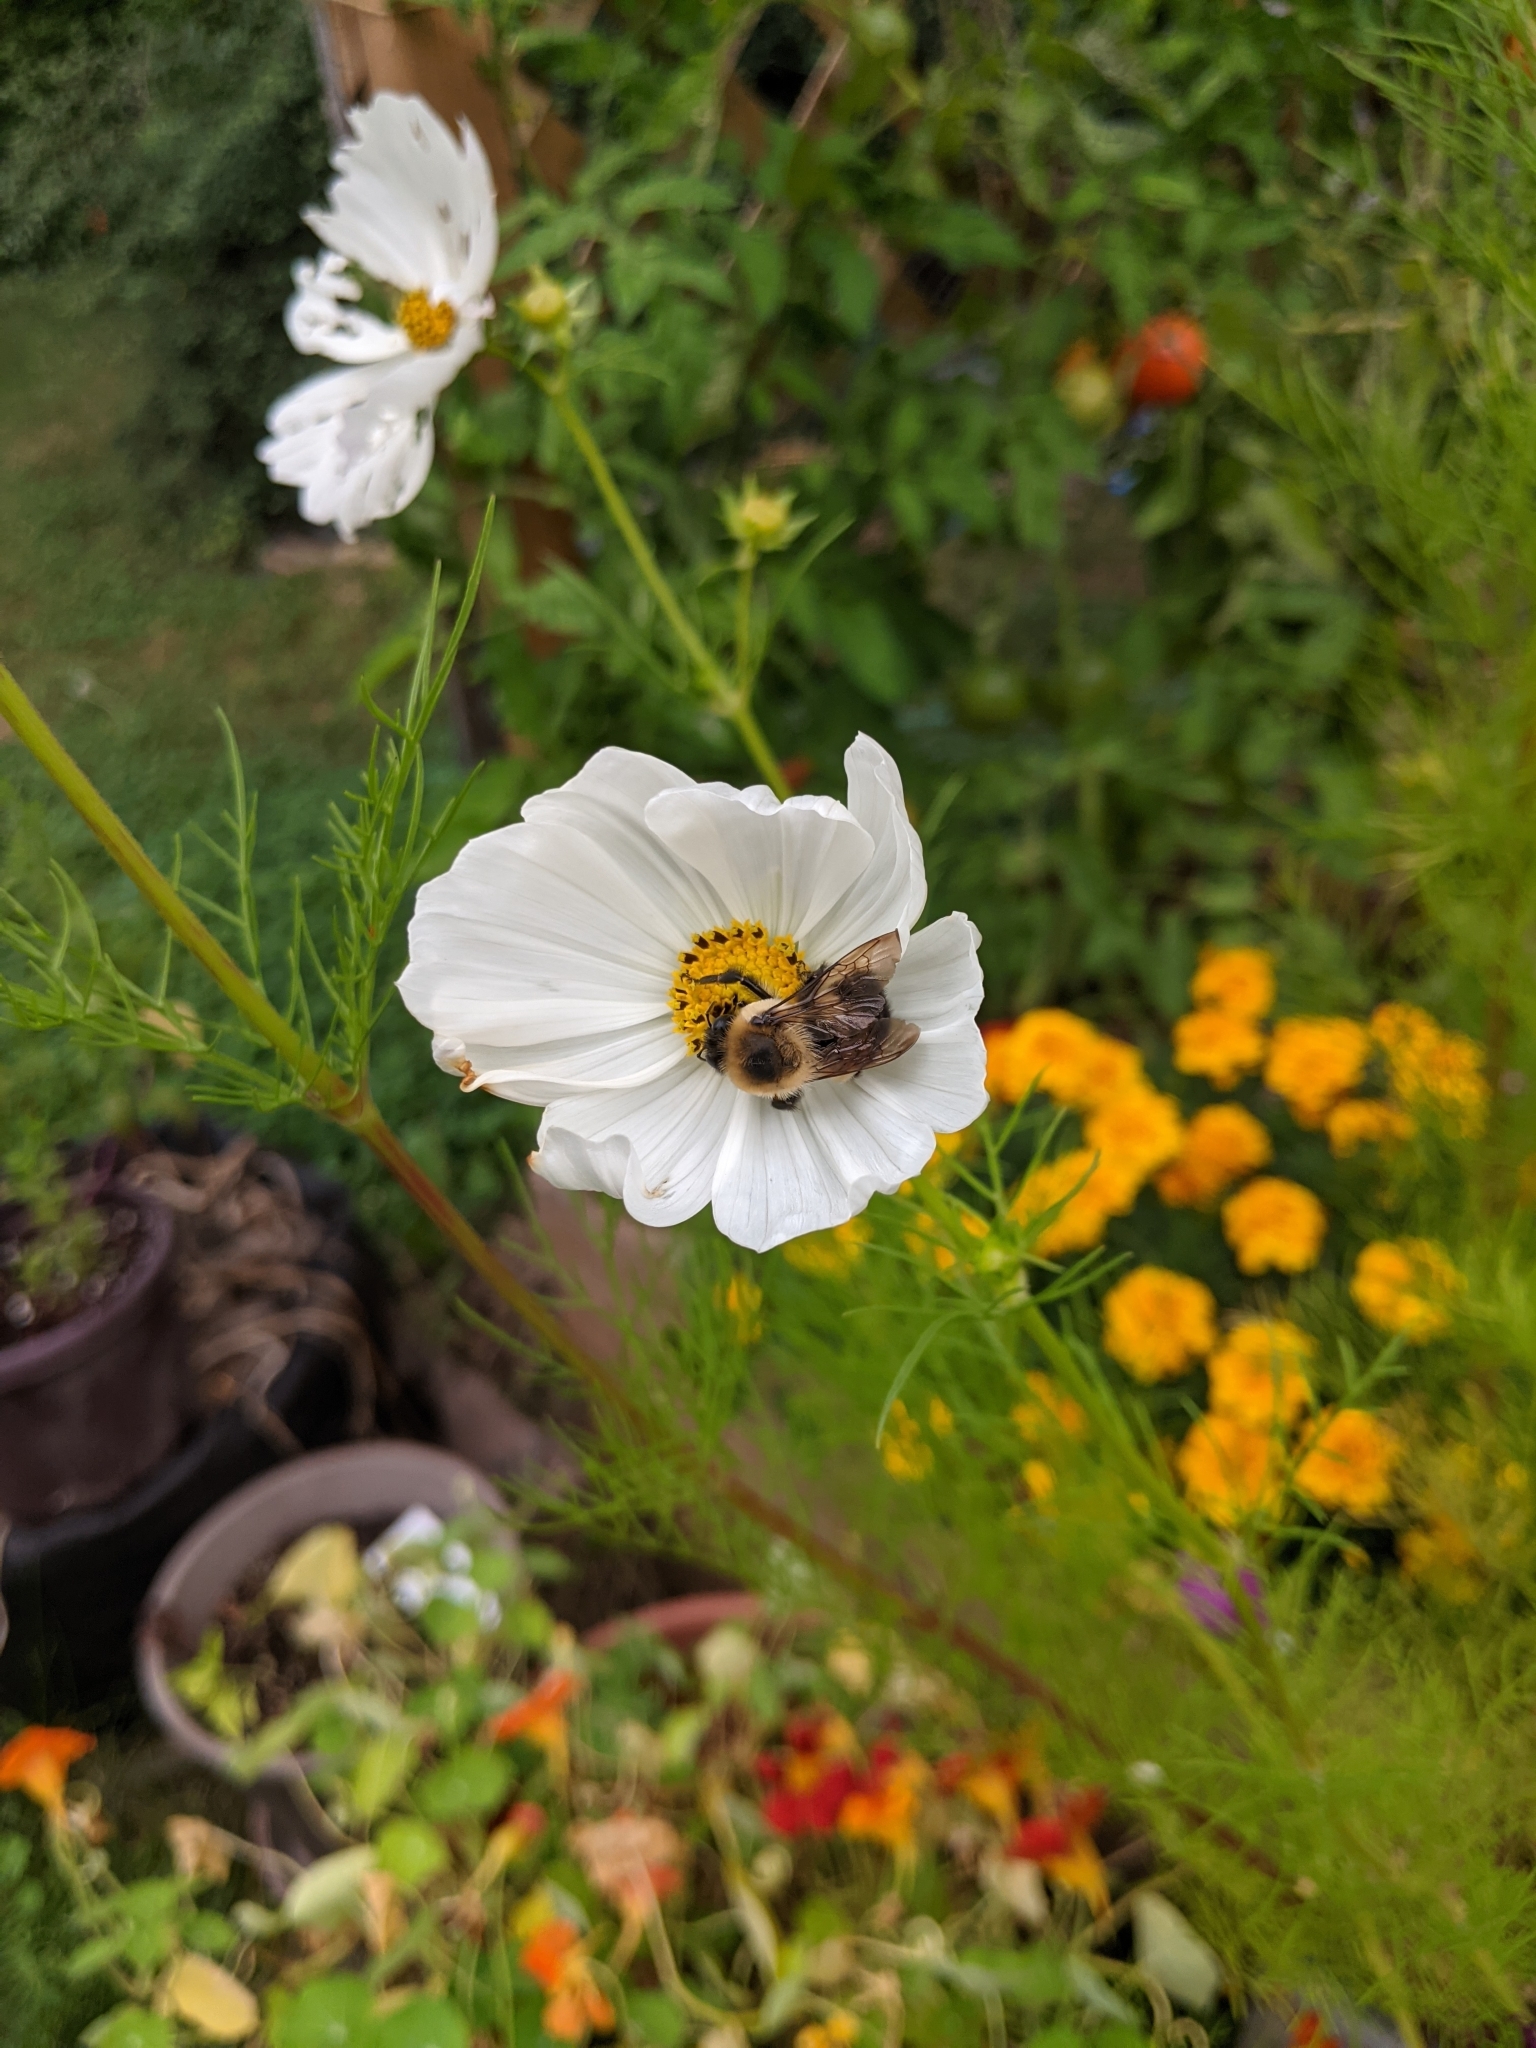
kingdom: Animalia
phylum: Arthropoda
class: Insecta
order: Hymenoptera
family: Apidae
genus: Bombus
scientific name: Bombus griseocollis
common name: Brown-belted bumble bee
